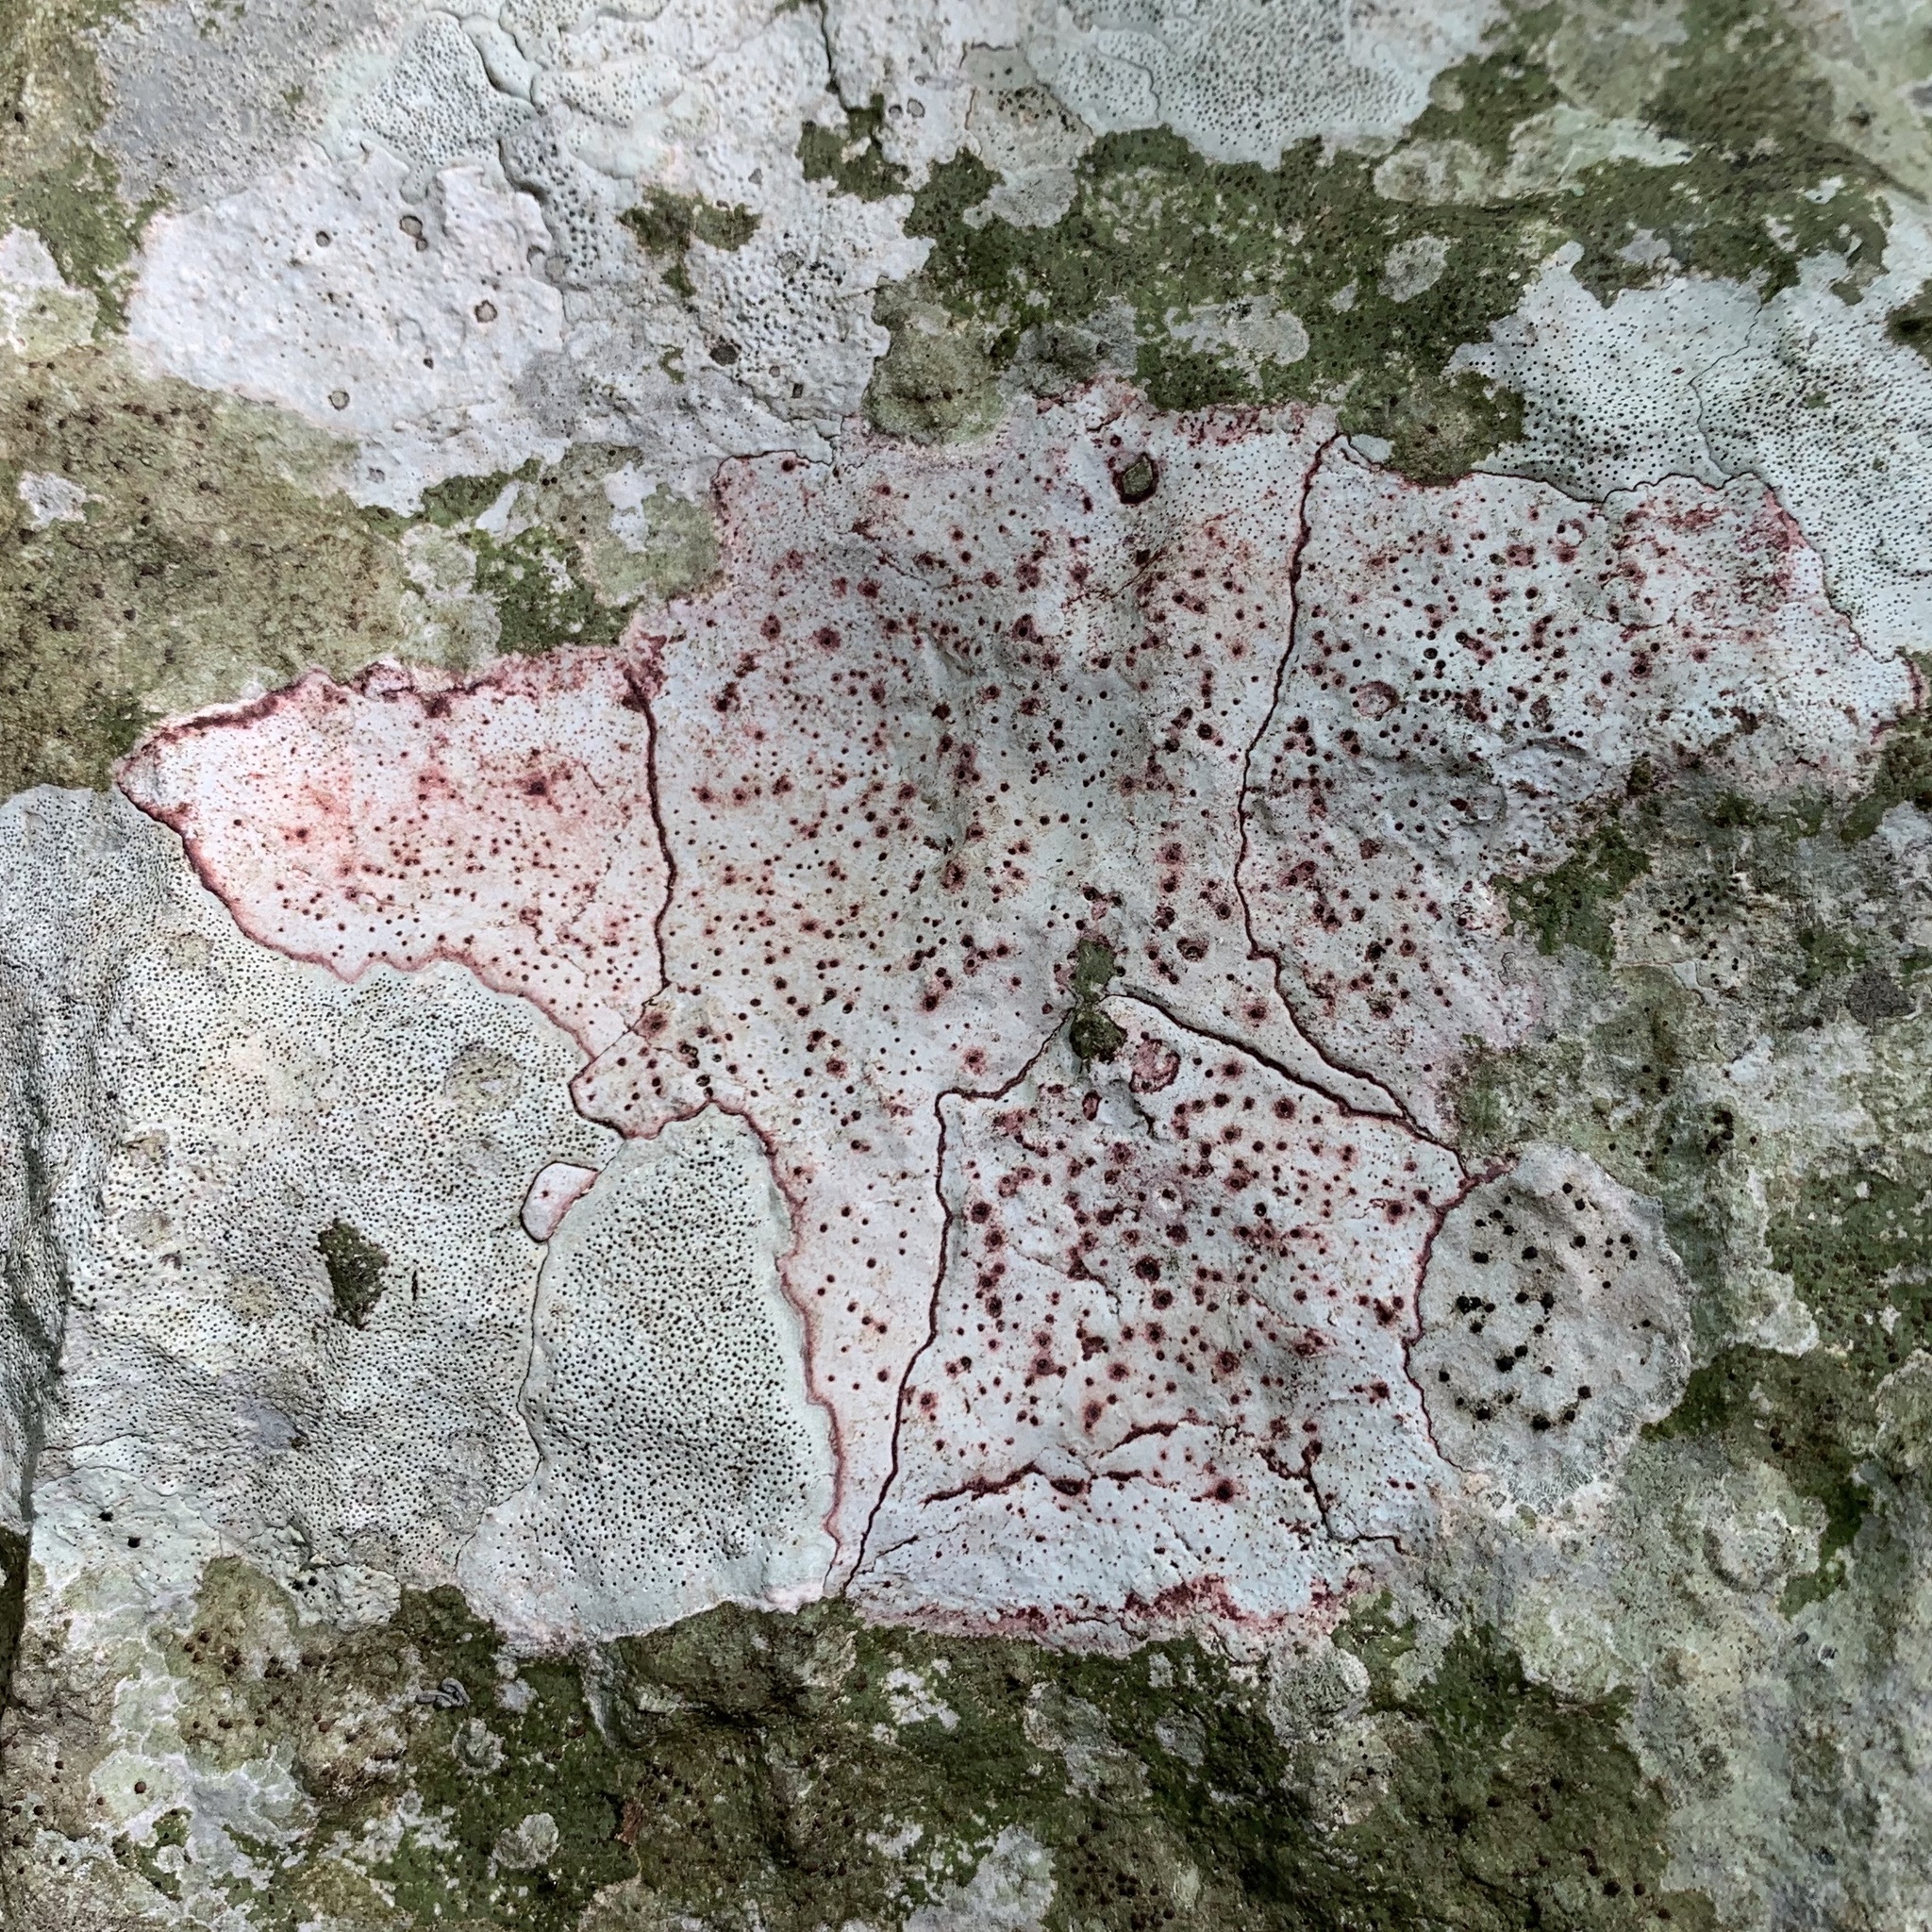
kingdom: Fungi
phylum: Ascomycota
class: Eurotiomycetes
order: Verrucariales
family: Verrucariaceae
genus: Bagliettoa
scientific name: Bagliettoa marmorea
